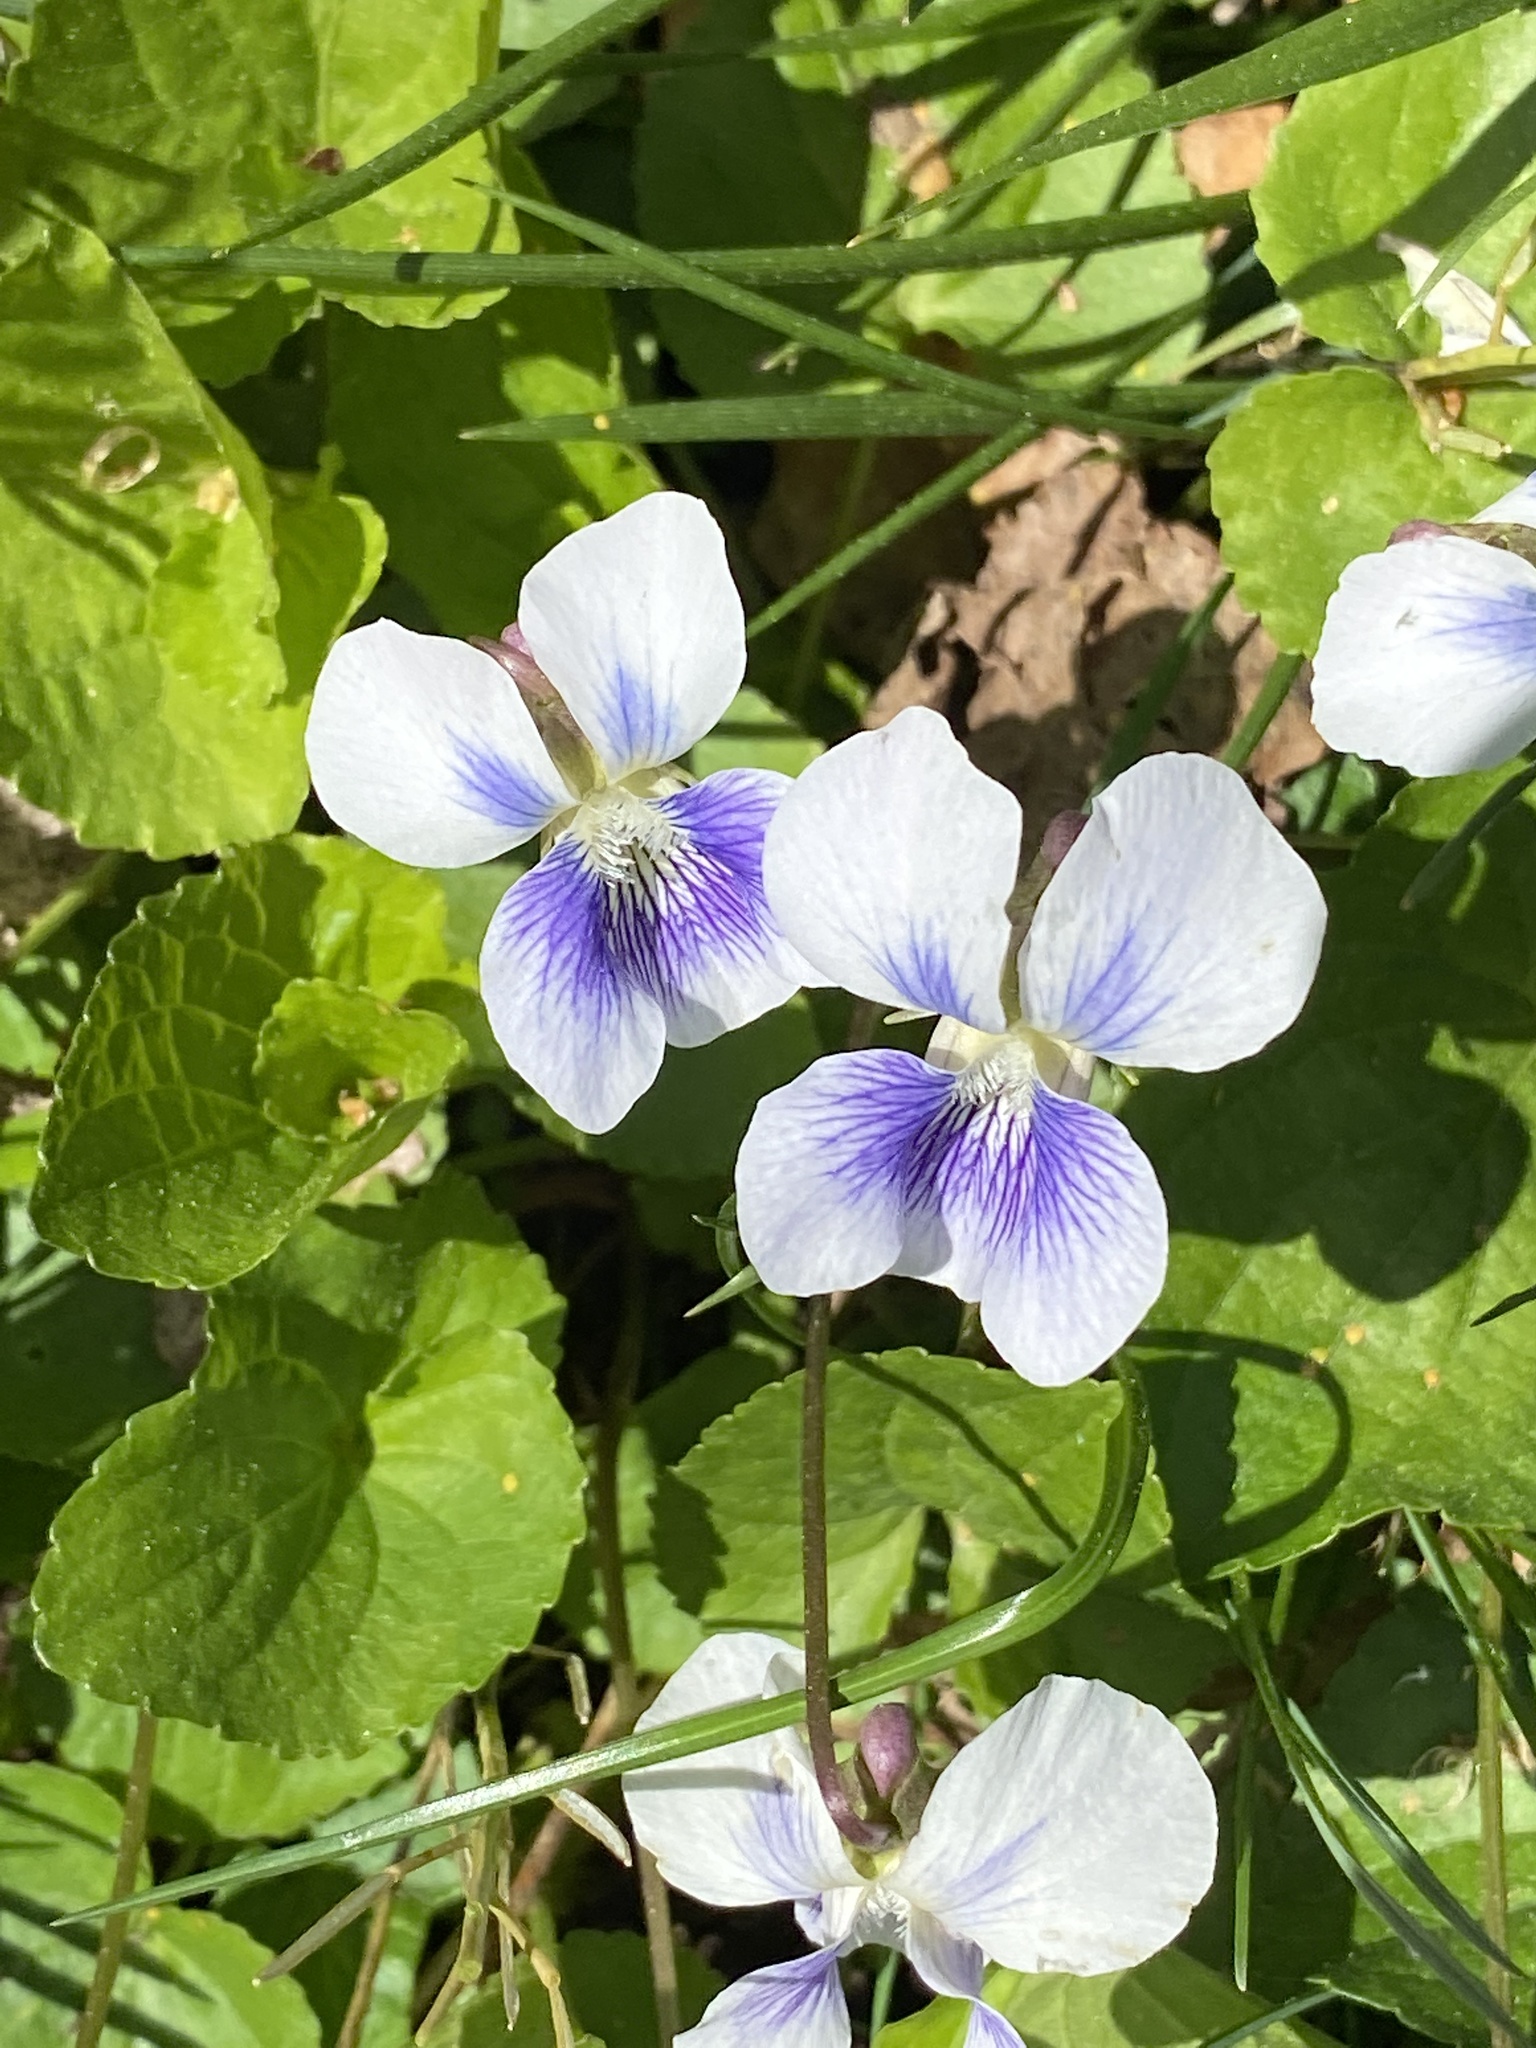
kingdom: Plantae
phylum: Tracheophyta
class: Magnoliopsida
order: Malpighiales
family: Violaceae
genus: Viola
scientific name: Viola sororia
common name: Dooryard violet
